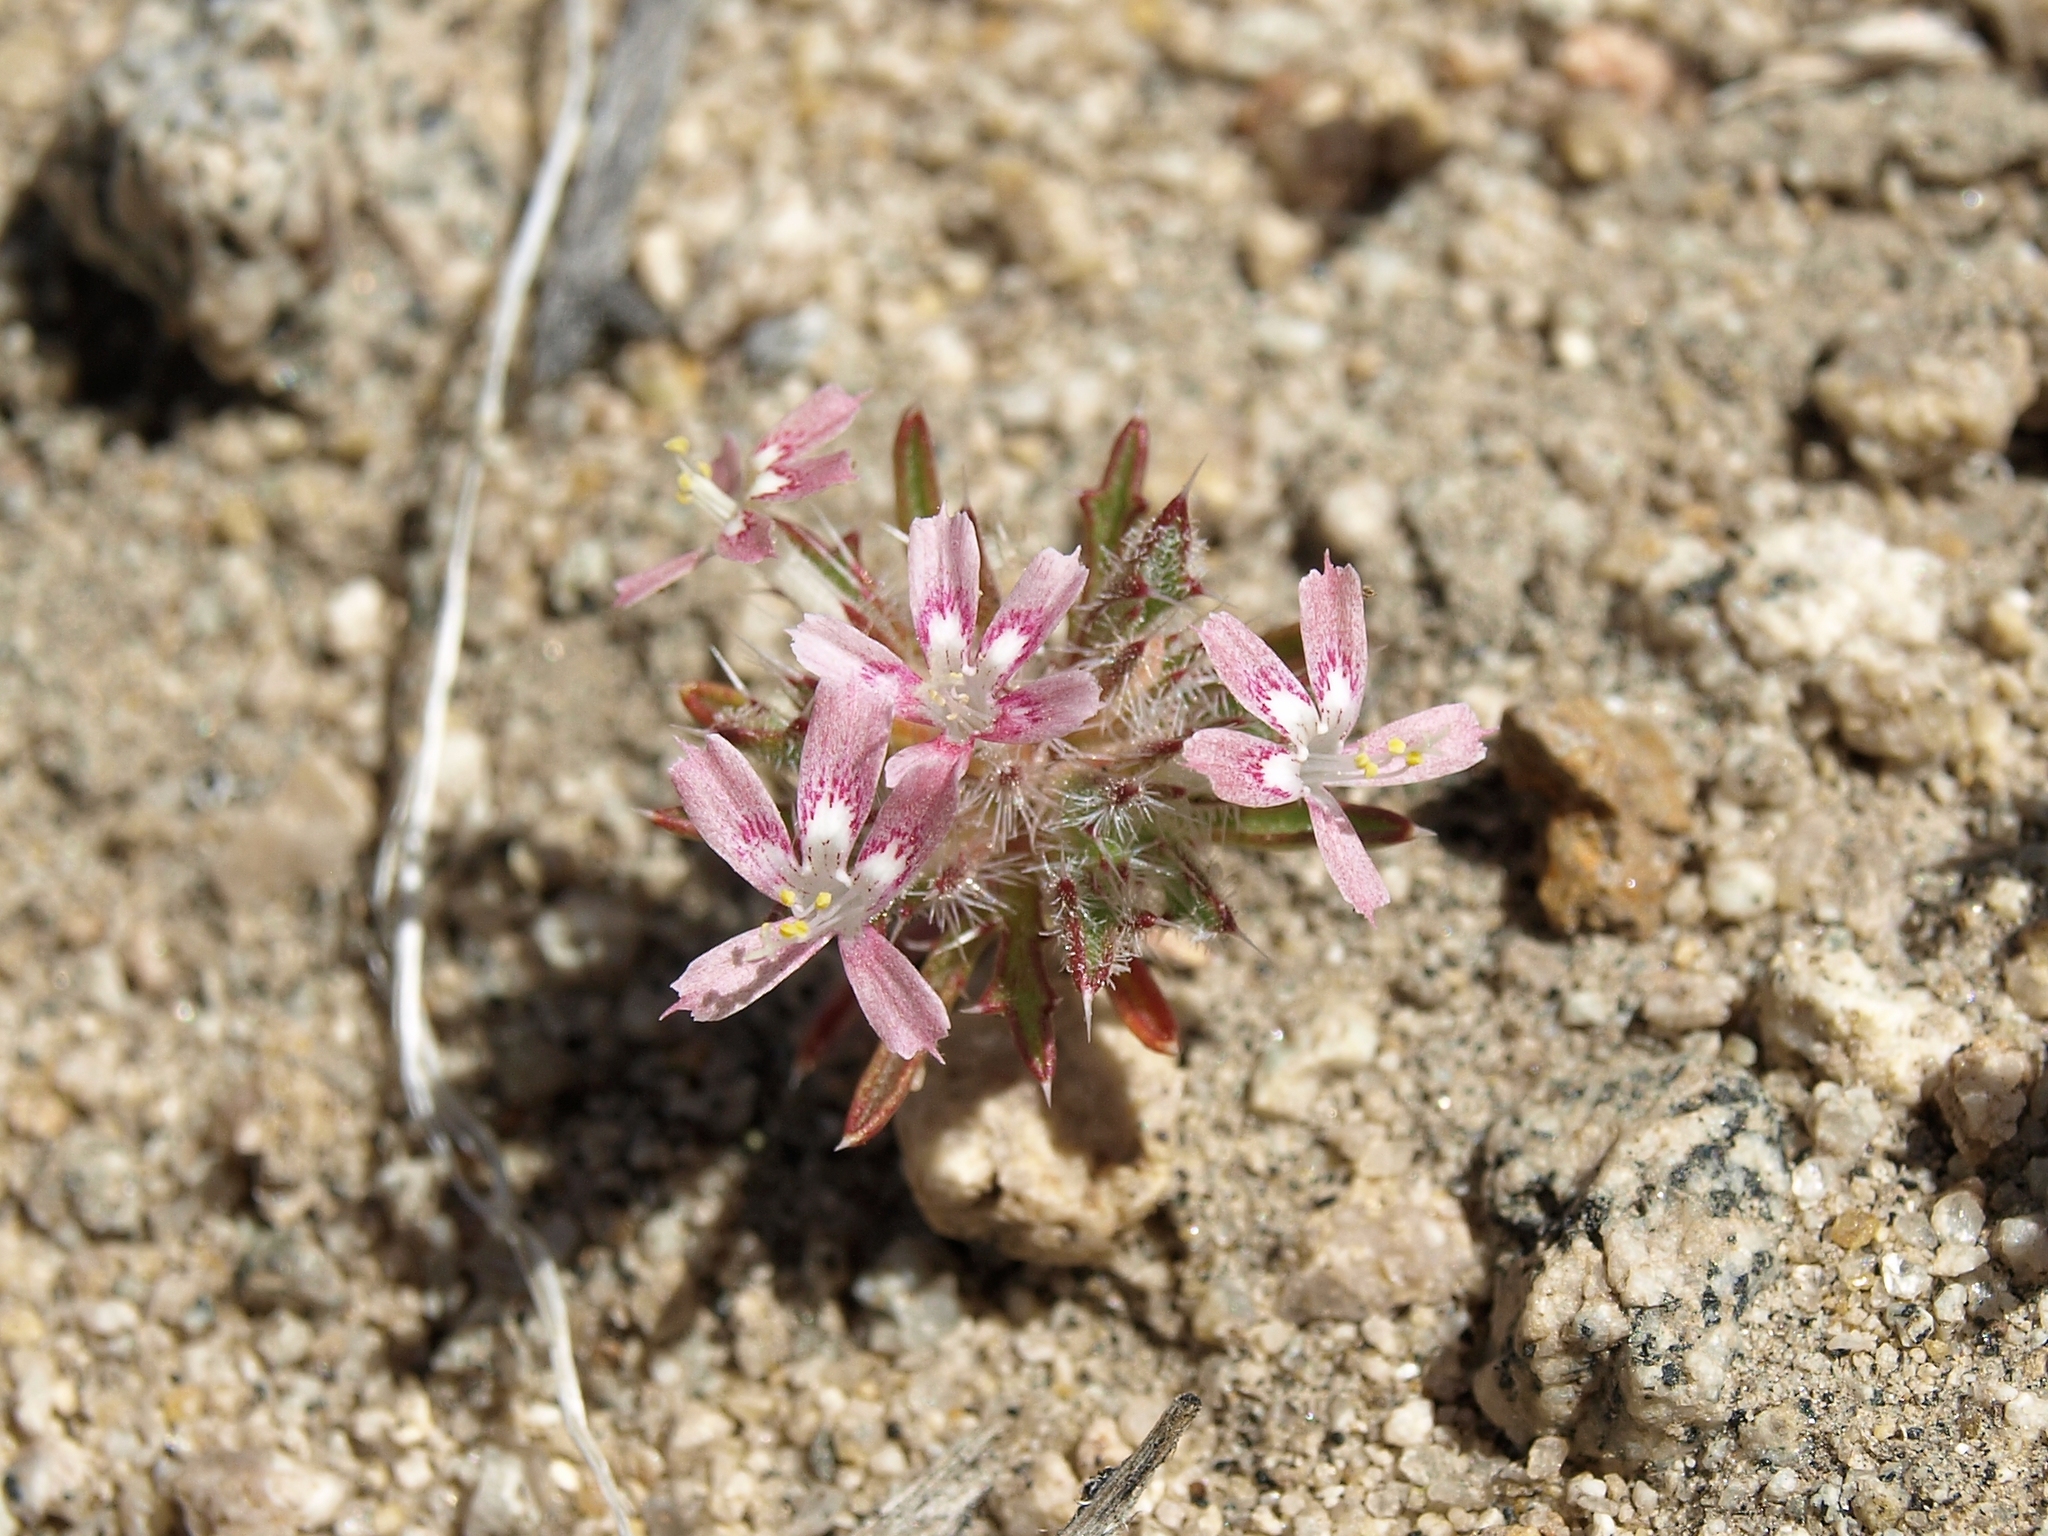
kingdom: Plantae
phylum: Tracheophyta
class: Magnoliopsida
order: Ericales
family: Polemoniaceae
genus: Loeseliastrum
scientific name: Loeseliastrum schottii
